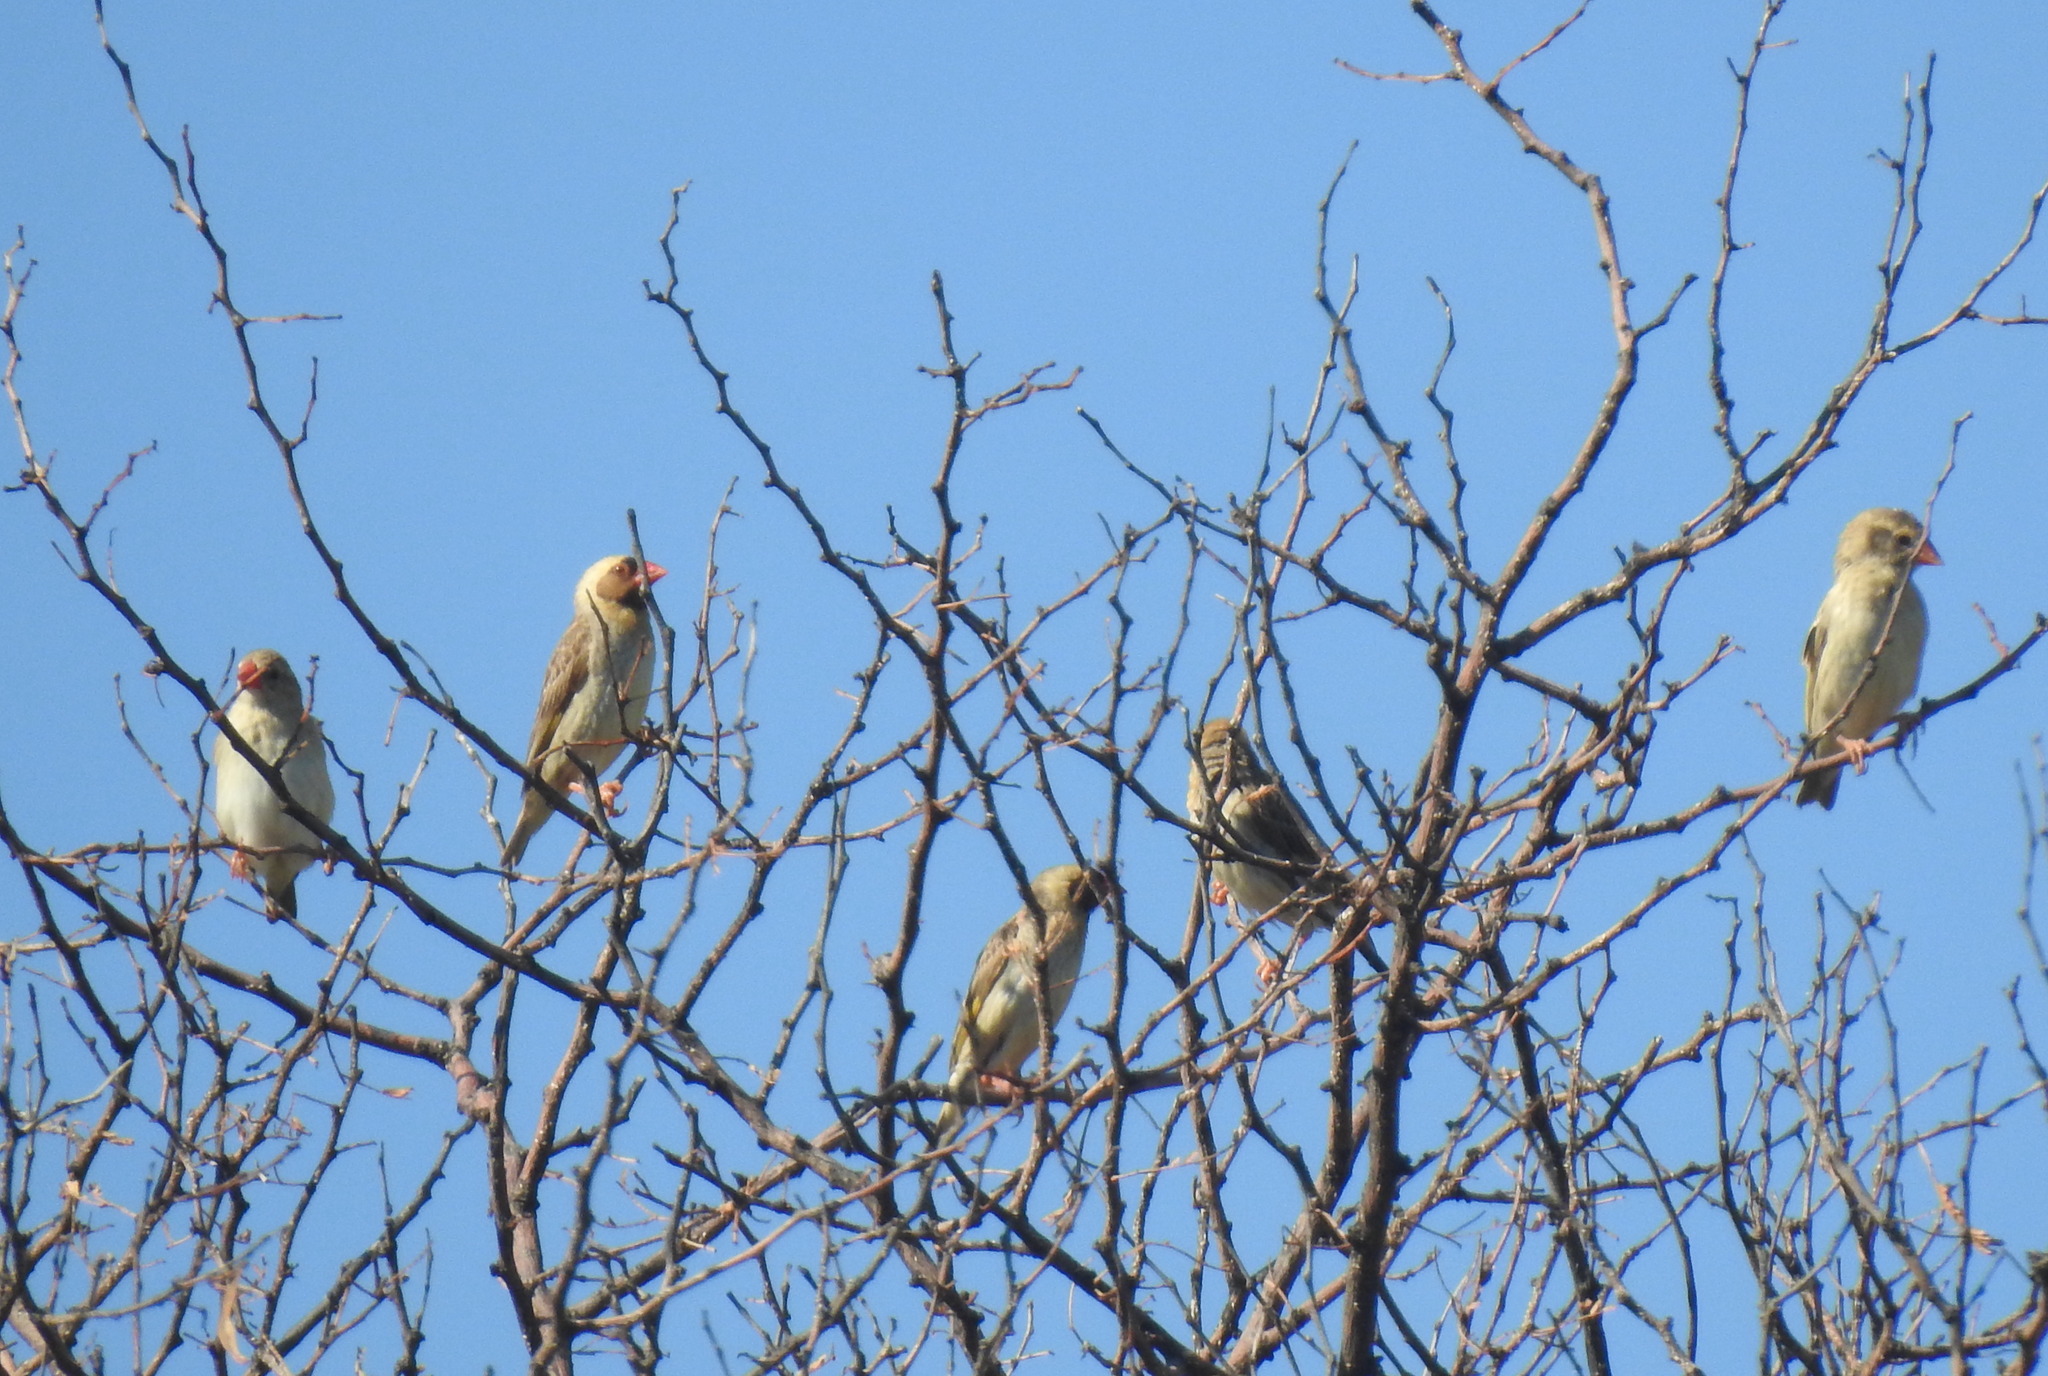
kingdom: Animalia
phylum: Chordata
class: Aves
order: Passeriformes
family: Ploceidae
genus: Quelea
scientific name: Quelea quelea
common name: Red-billed quelea
